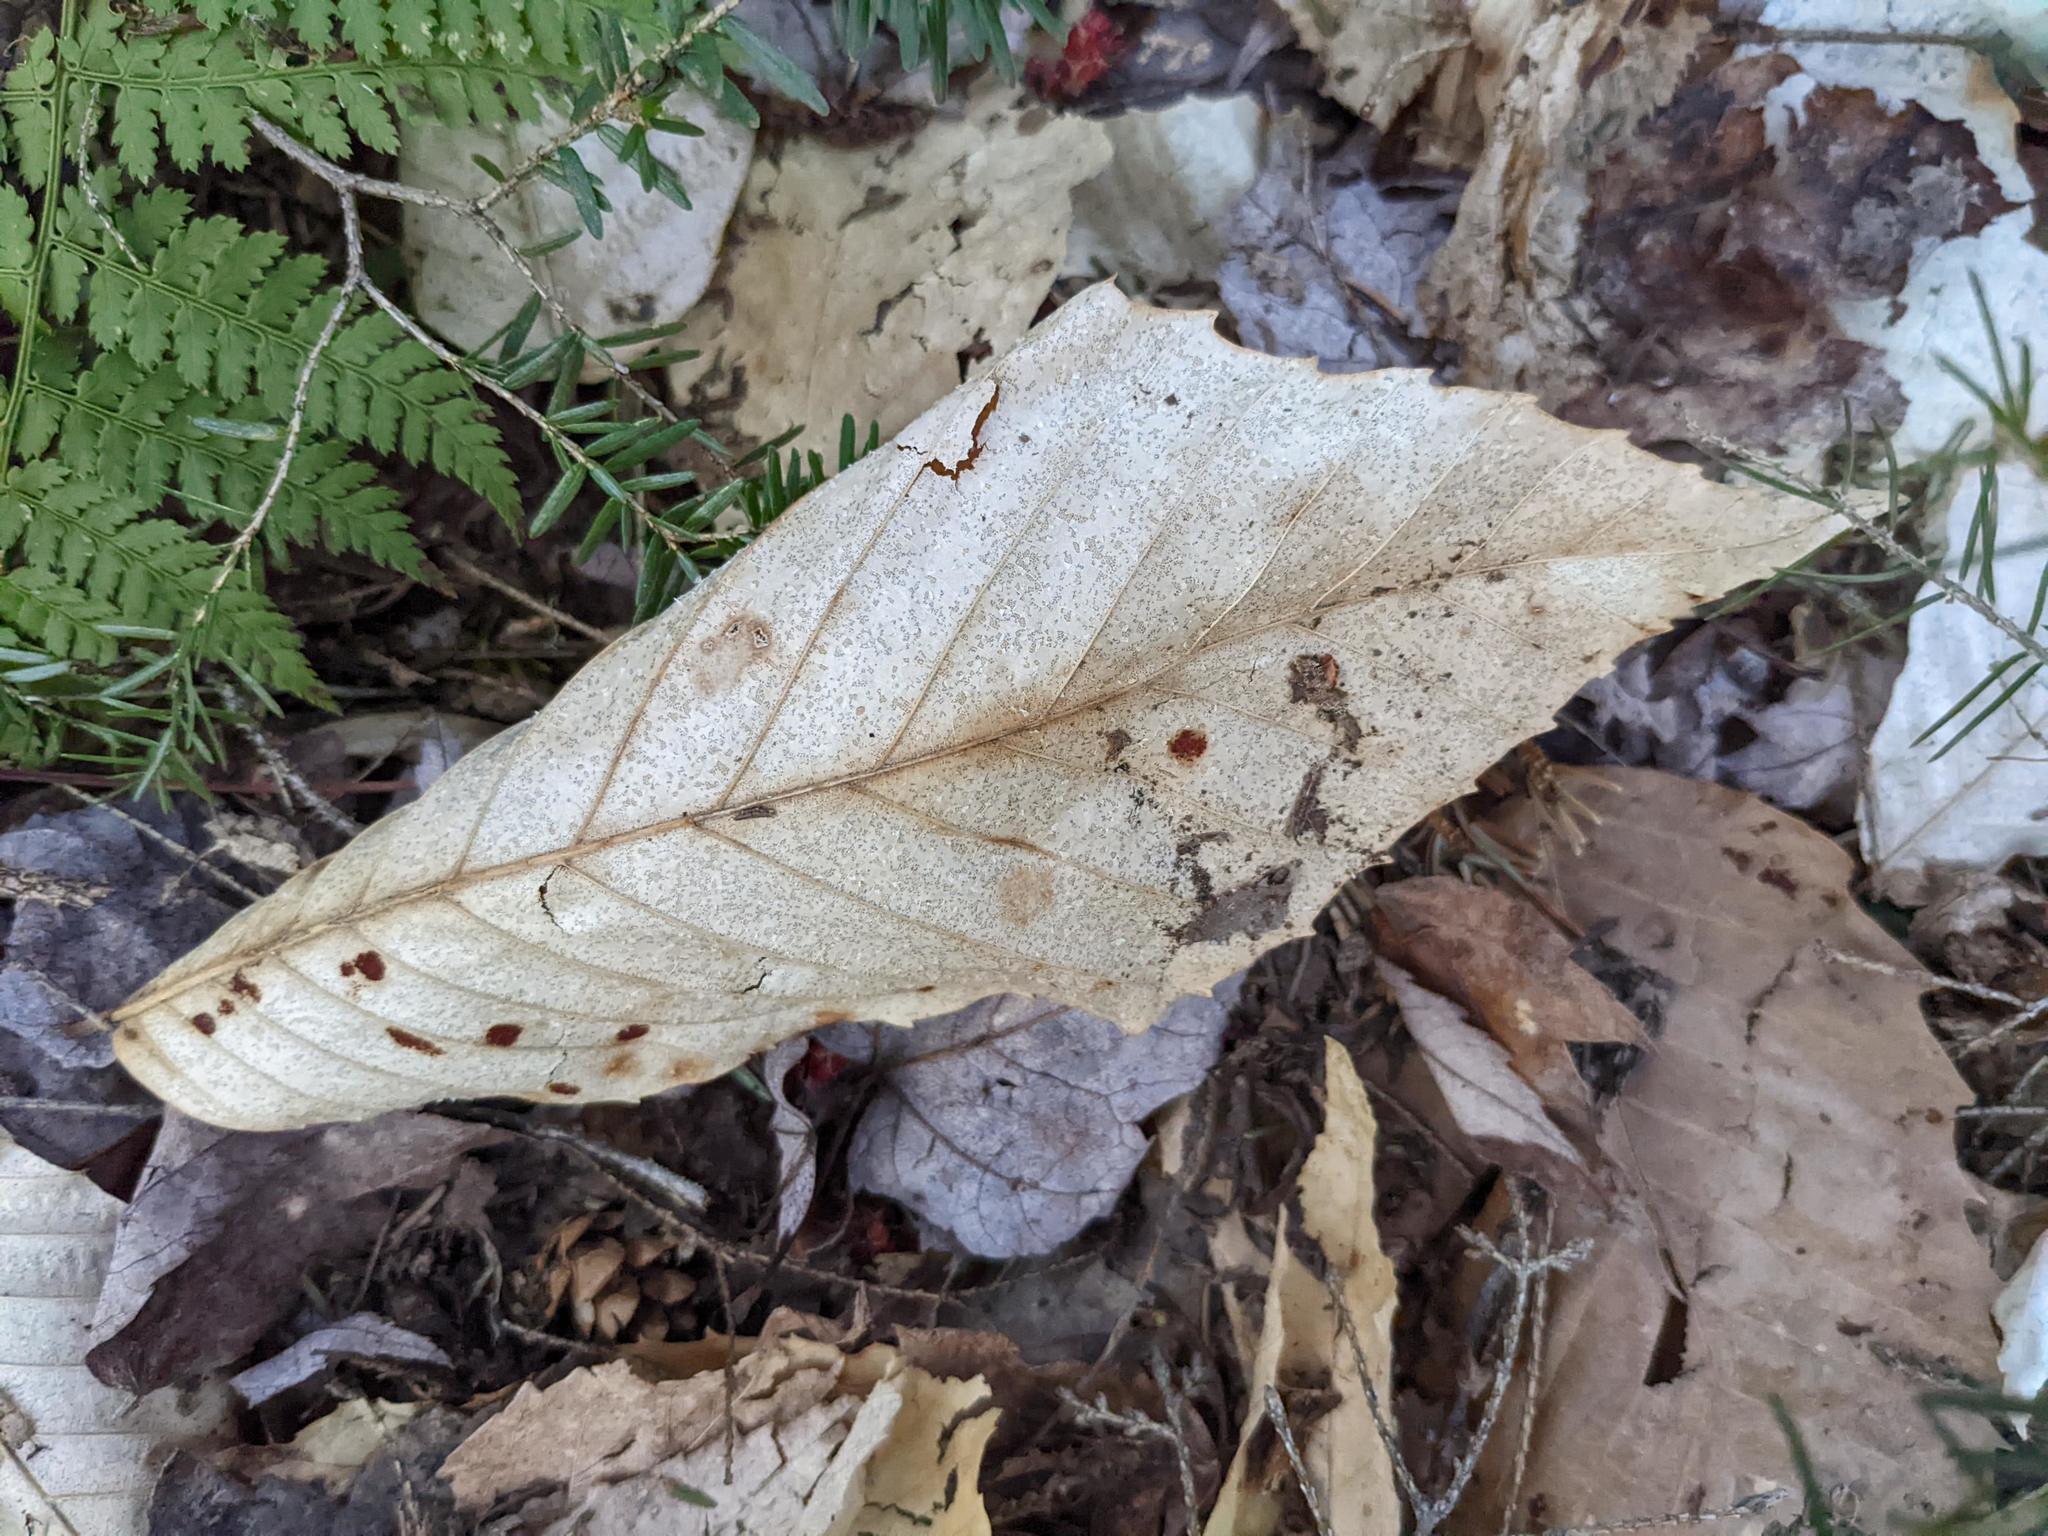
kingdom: Plantae
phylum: Tracheophyta
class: Magnoliopsida
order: Fagales
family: Fagaceae
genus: Fagus
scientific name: Fagus grandifolia
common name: American beech
